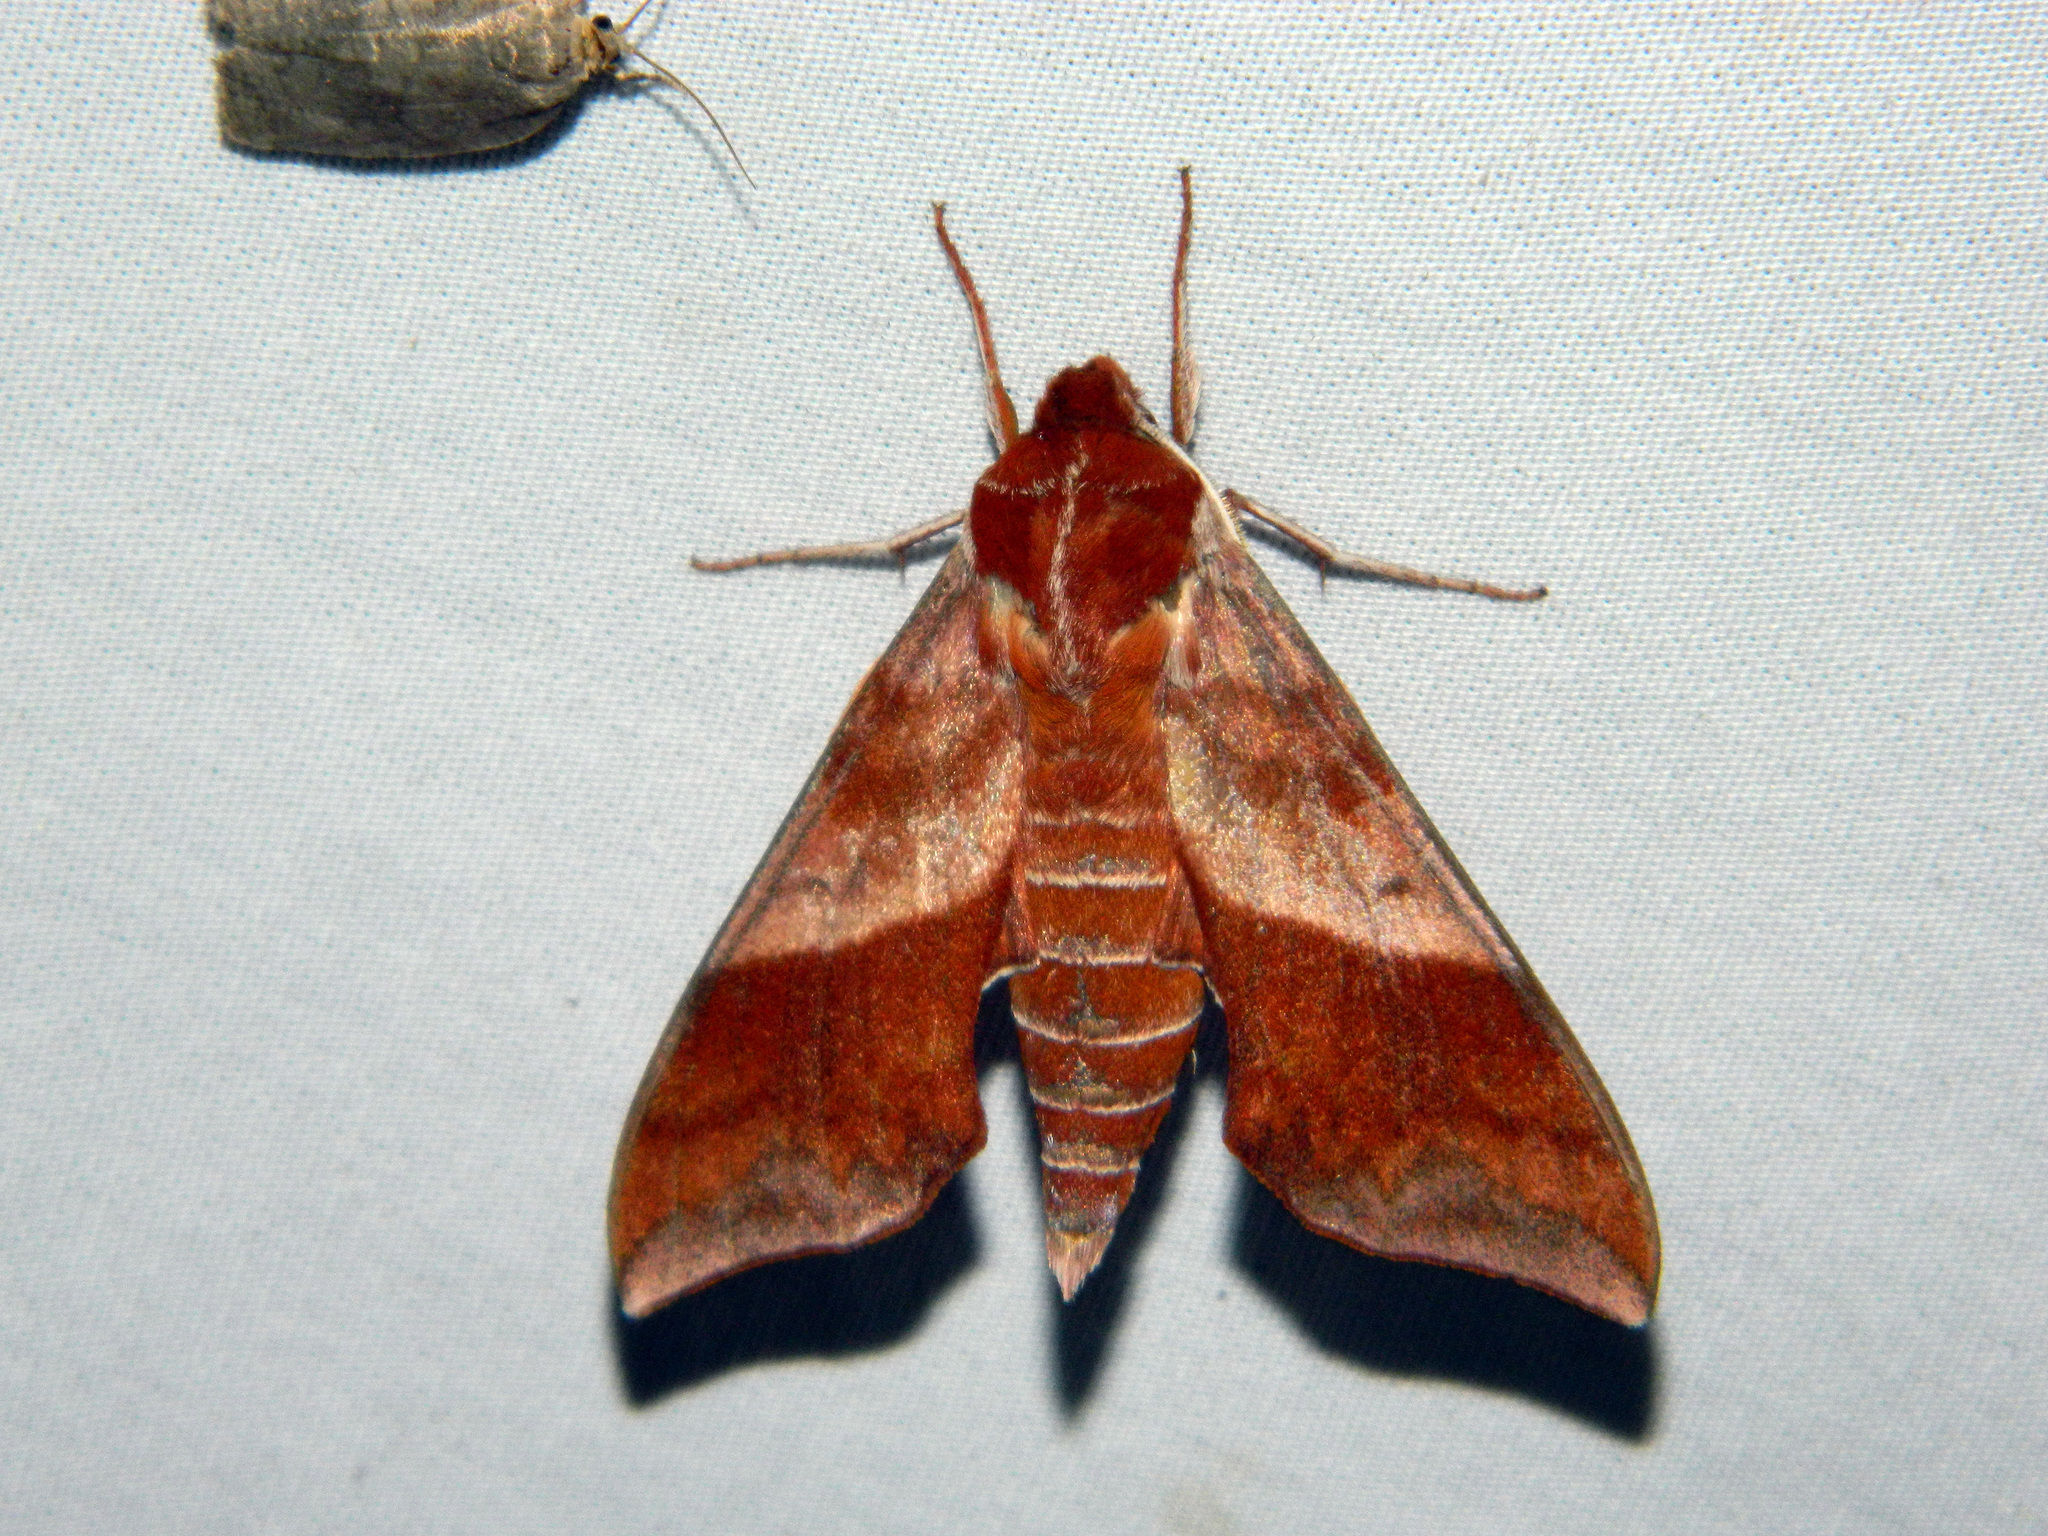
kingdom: Animalia
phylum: Arthropoda
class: Insecta
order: Lepidoptera
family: Sphingidae
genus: Darapsa
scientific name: Darapsa choerilus
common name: Azalea sphinx
